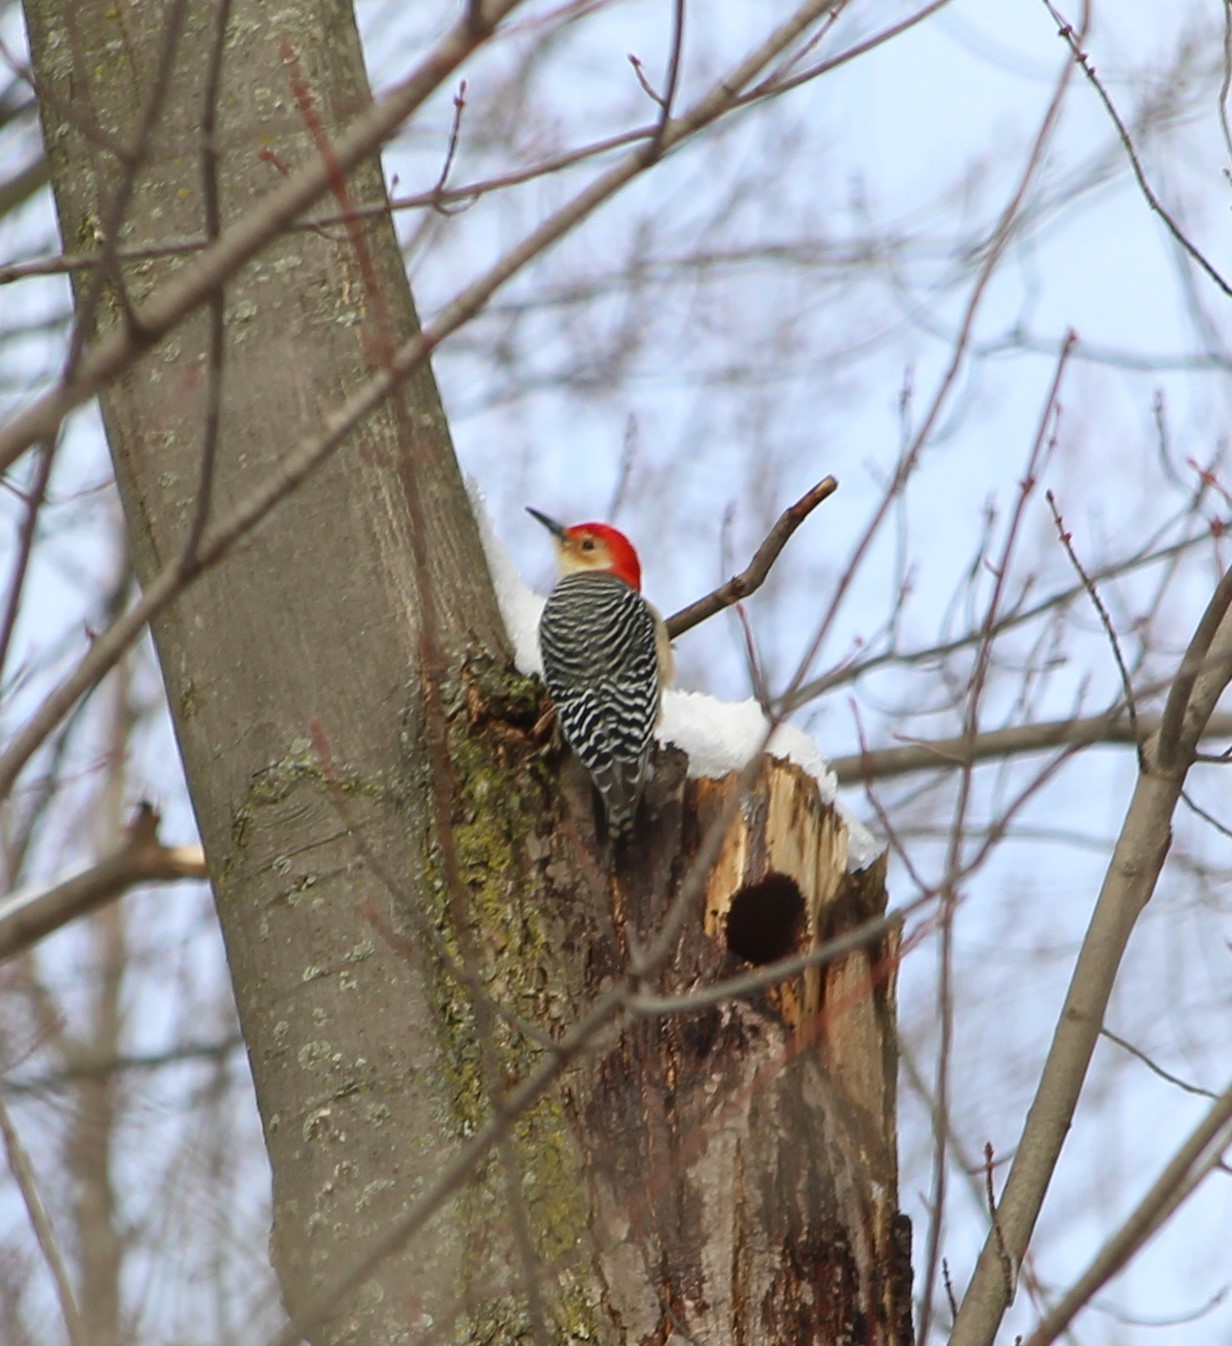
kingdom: Animalia
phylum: Chordata
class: Aves
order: Piciformes
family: Picidae
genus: Melanerpes
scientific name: Melanerpes carolinus
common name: Red-bellied woodpecker
